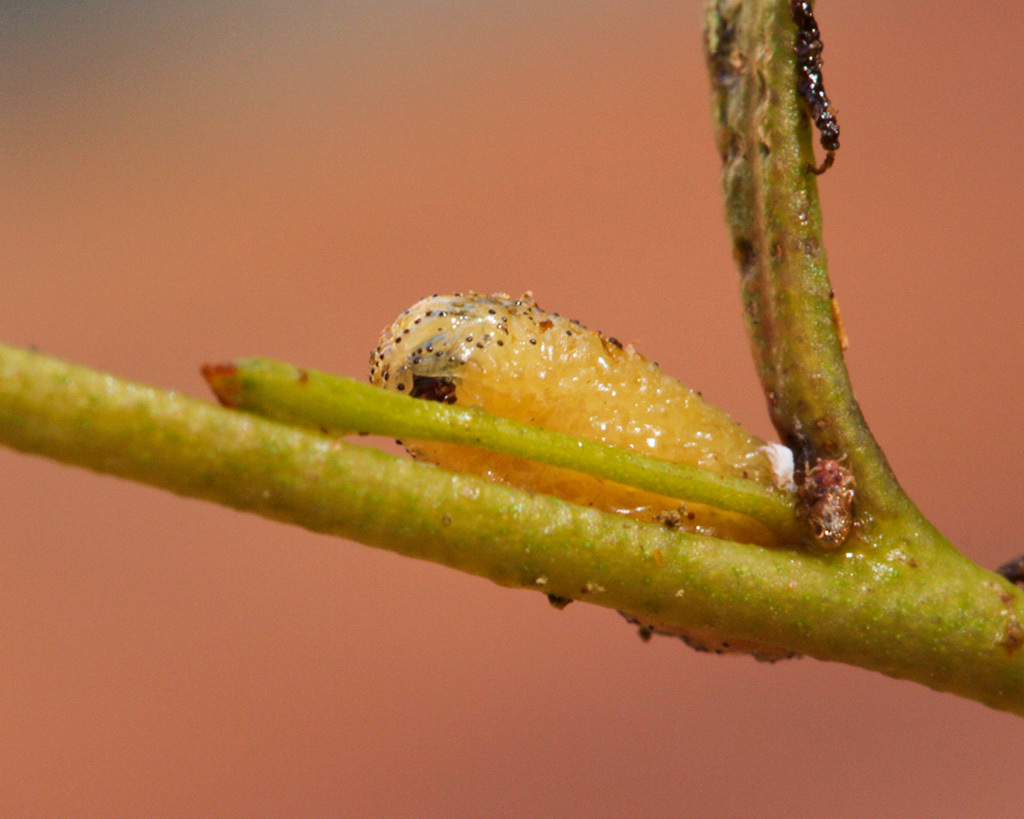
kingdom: Animalia
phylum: Arthropoda
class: Insecta
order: Coleoptera
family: Curculionidae
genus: Gonipterus
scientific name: Gonipterus
